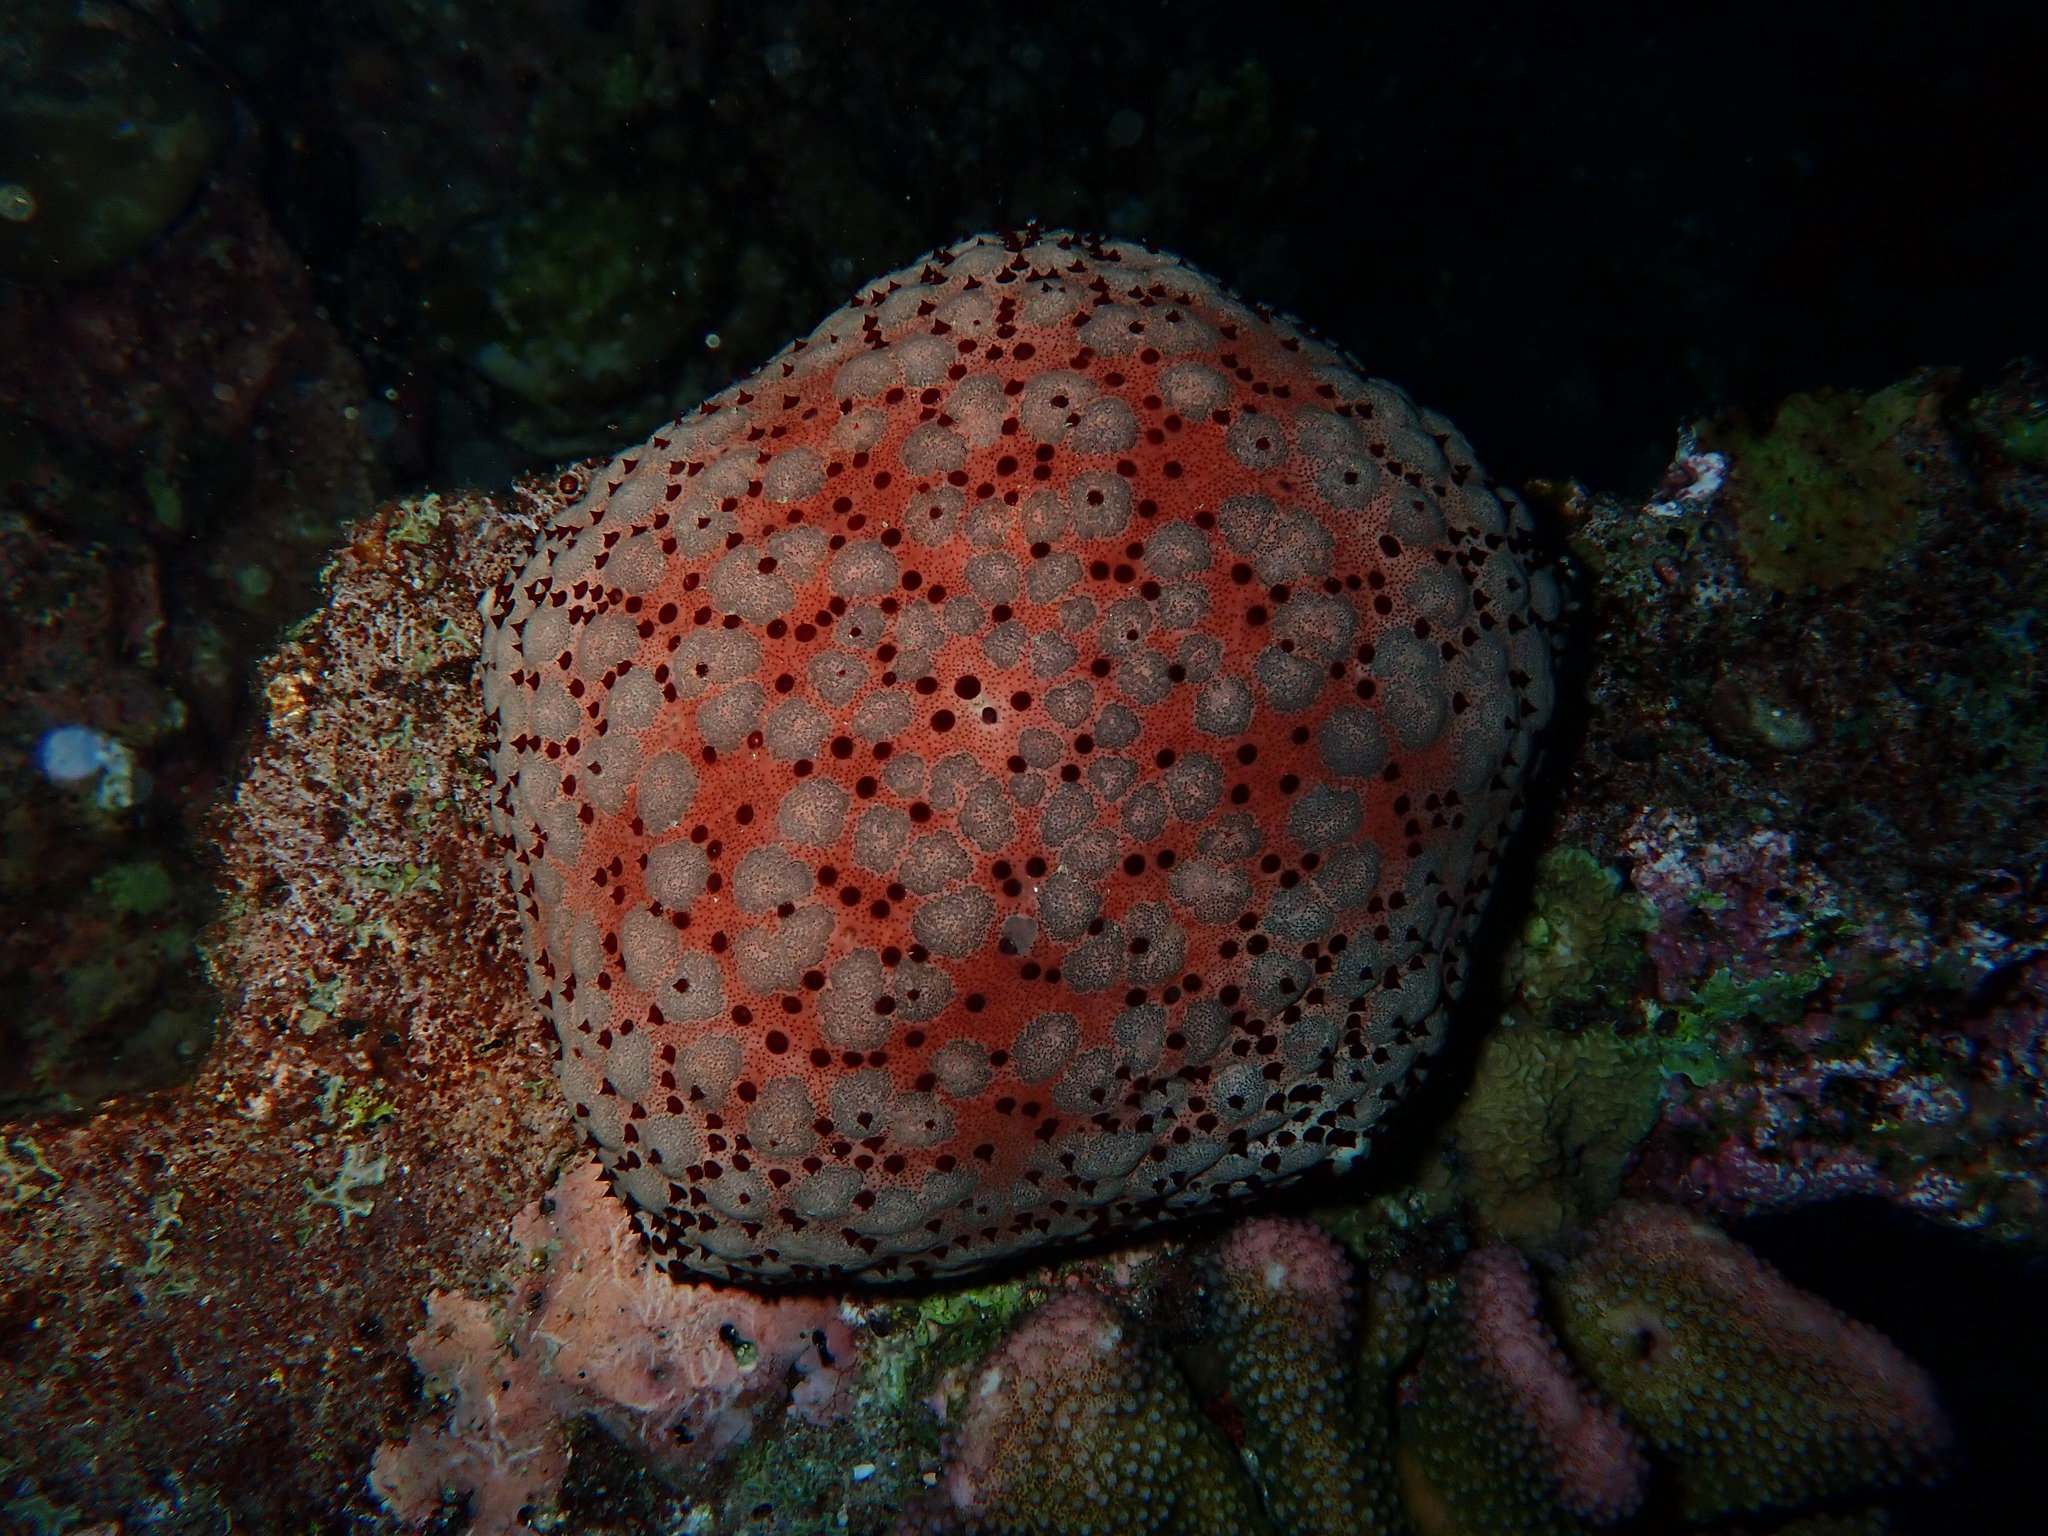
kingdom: Animalia
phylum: Echinodermata
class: Asteroidea
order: Valvatida
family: Oreasteridae
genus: Culcita
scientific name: Culcita schmideliana
